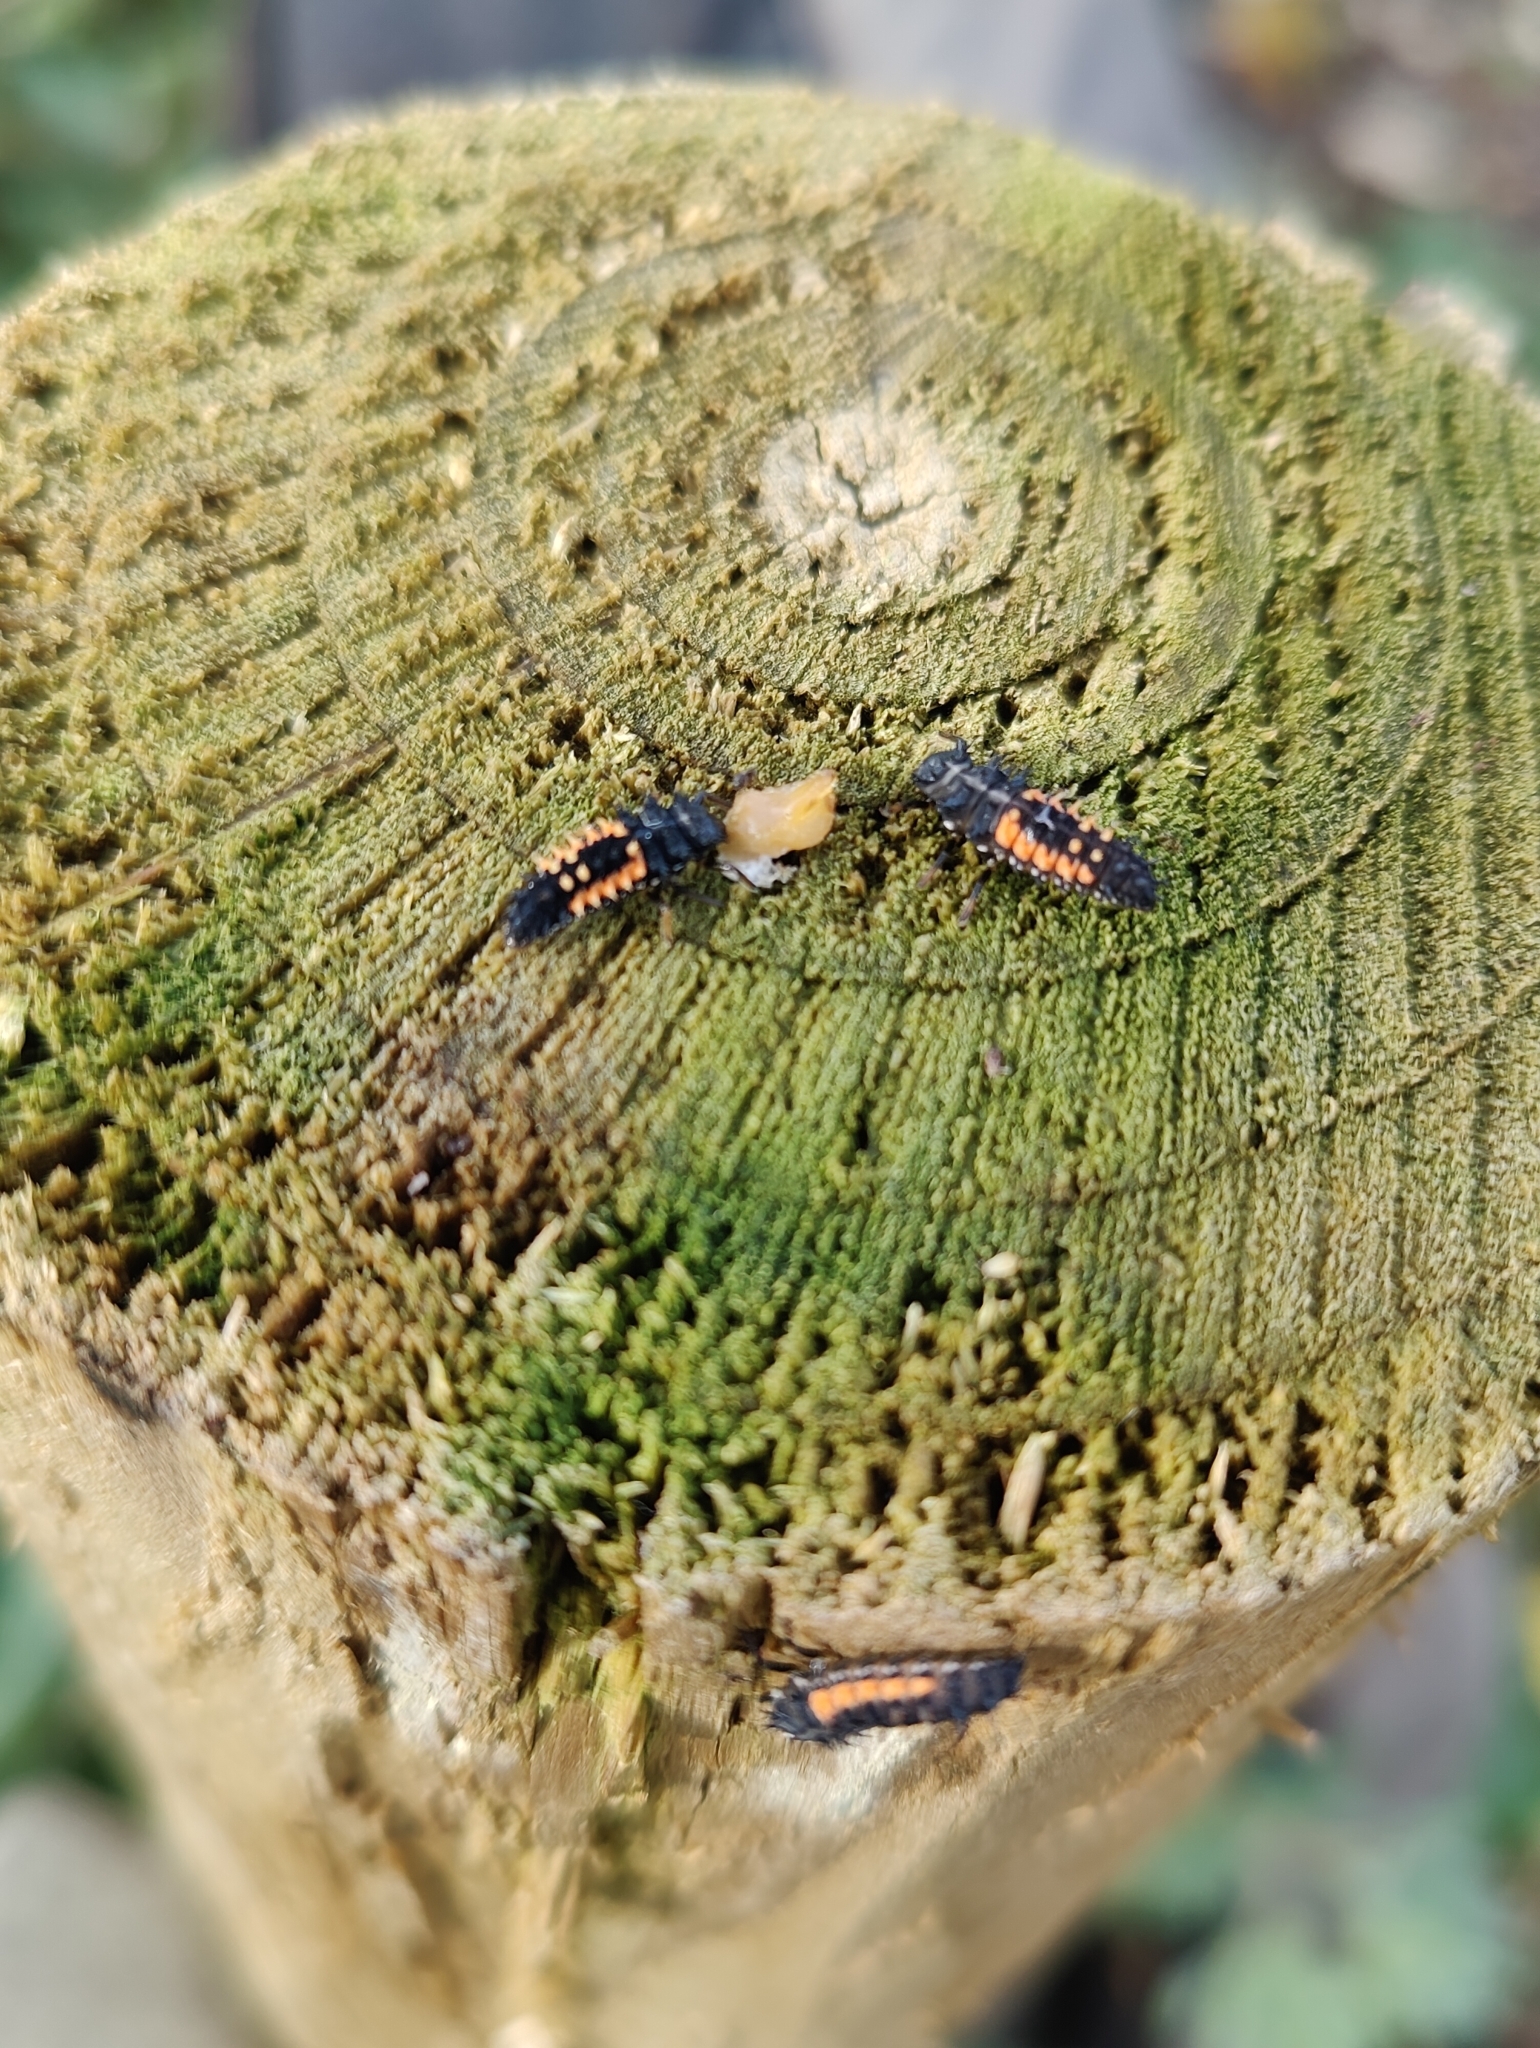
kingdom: Animalia
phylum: Arthropoda
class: Insecta
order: Coleoptera
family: Coccinellidae
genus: Harmonia
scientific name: Harmonia axyridis
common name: Harlequin ladybird
